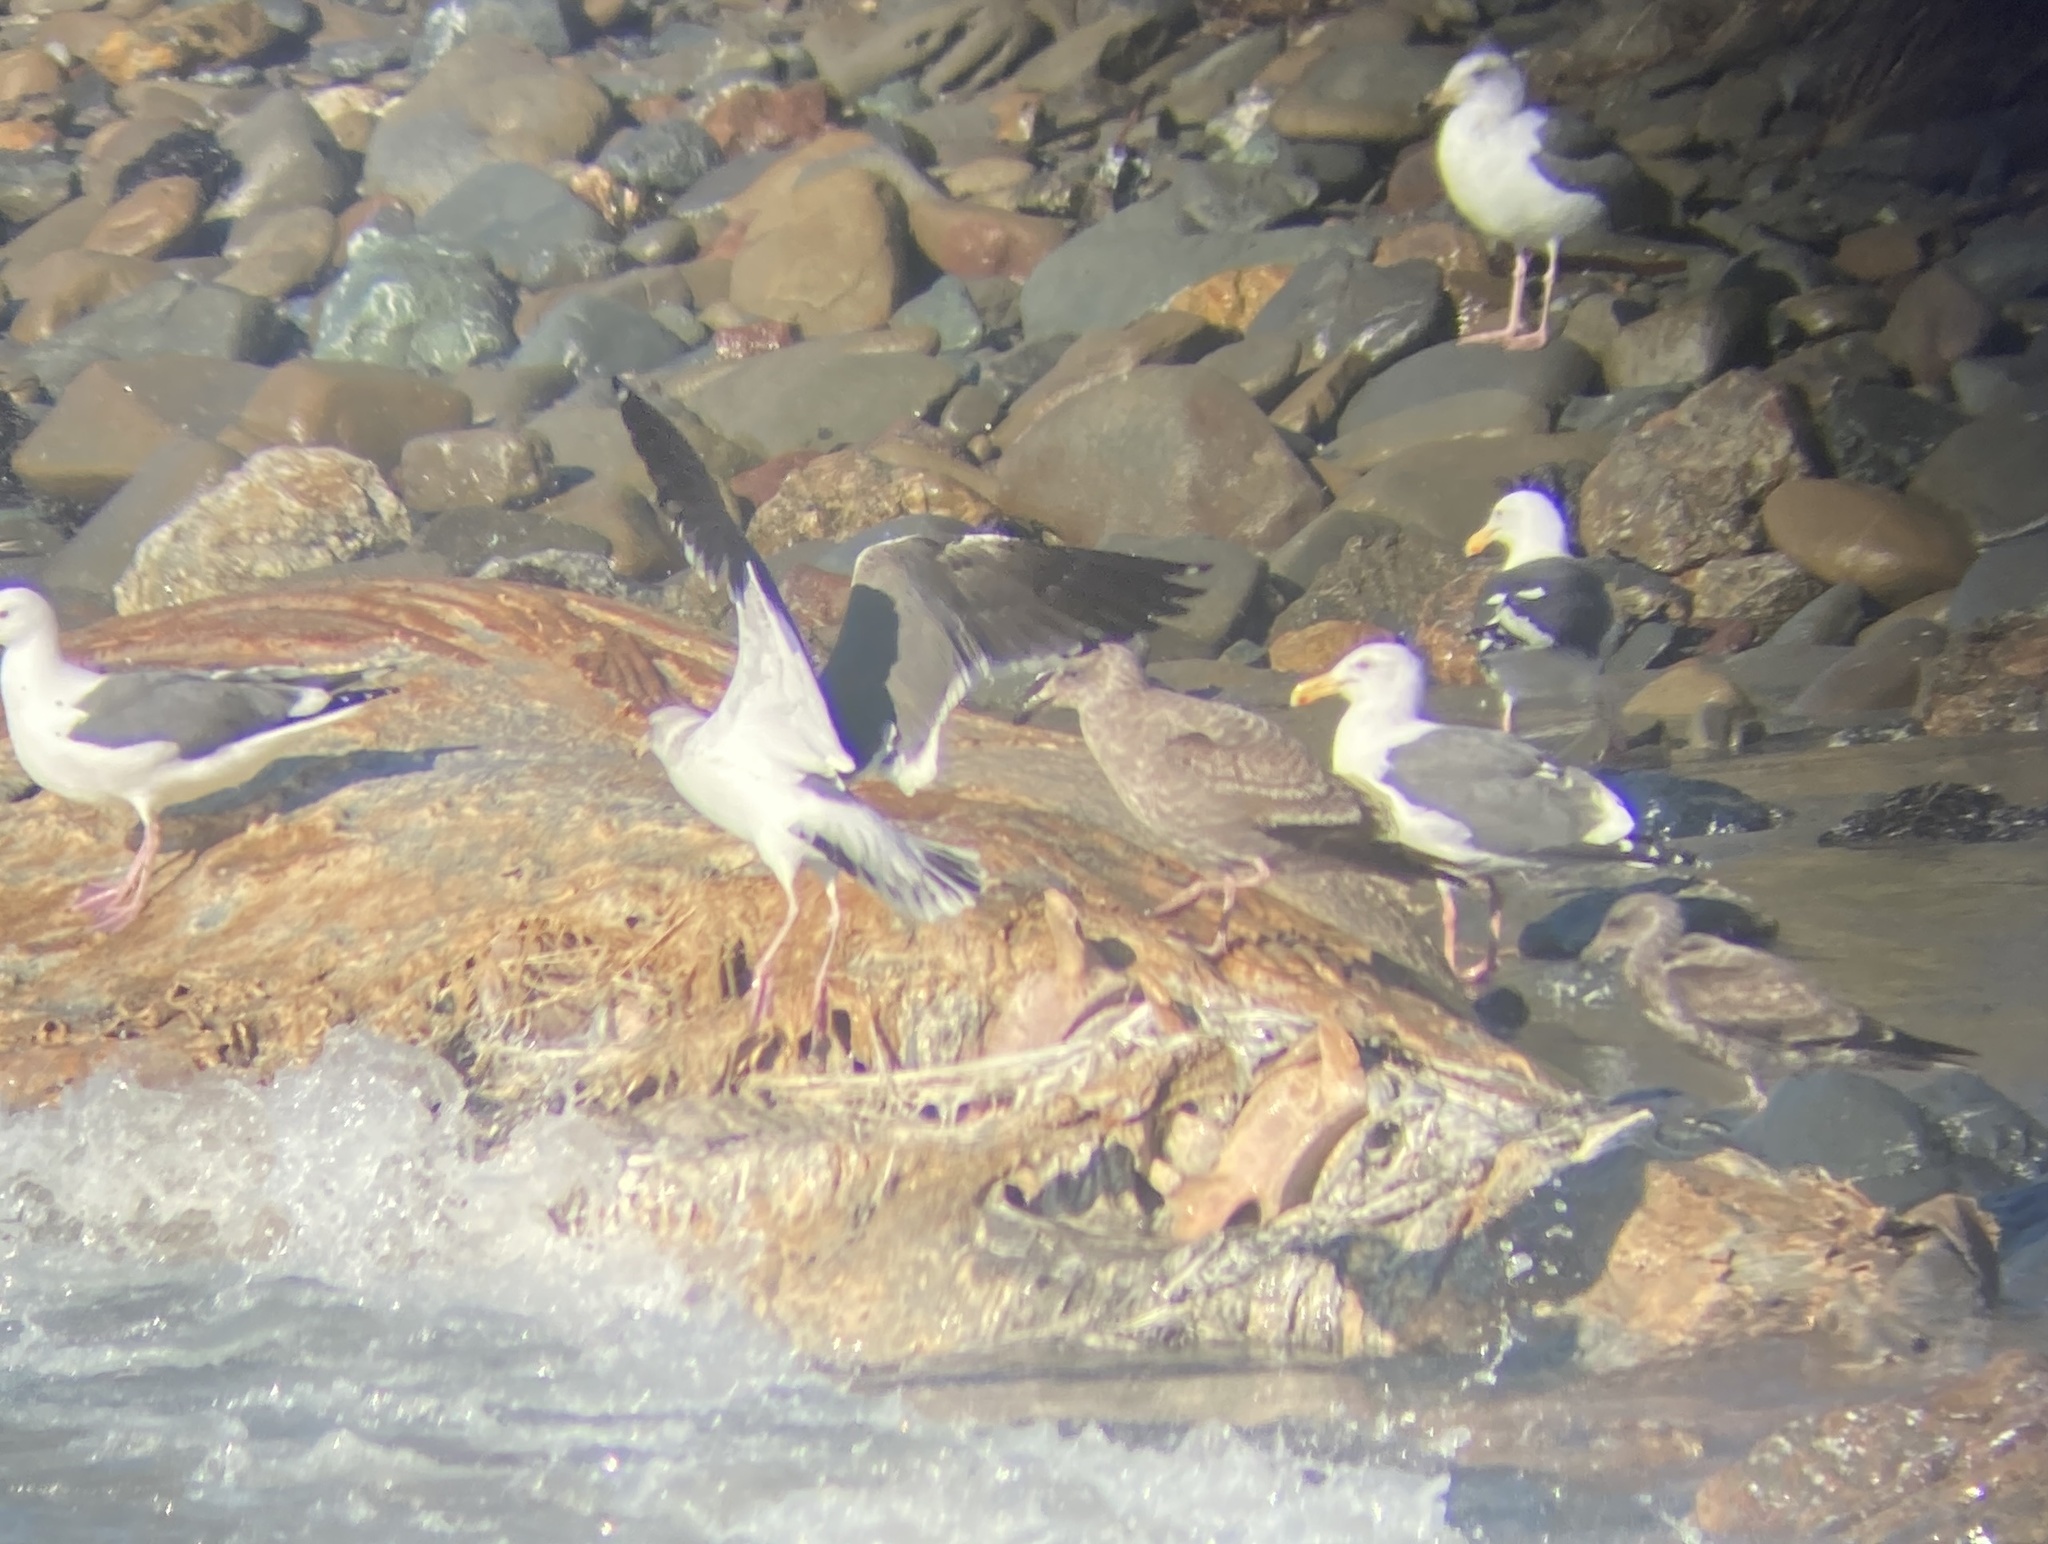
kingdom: Animalia
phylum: Chordata
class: Aves
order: Charadriiformes
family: Laridae
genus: Larus
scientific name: Larus occidentalis
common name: Western gull
